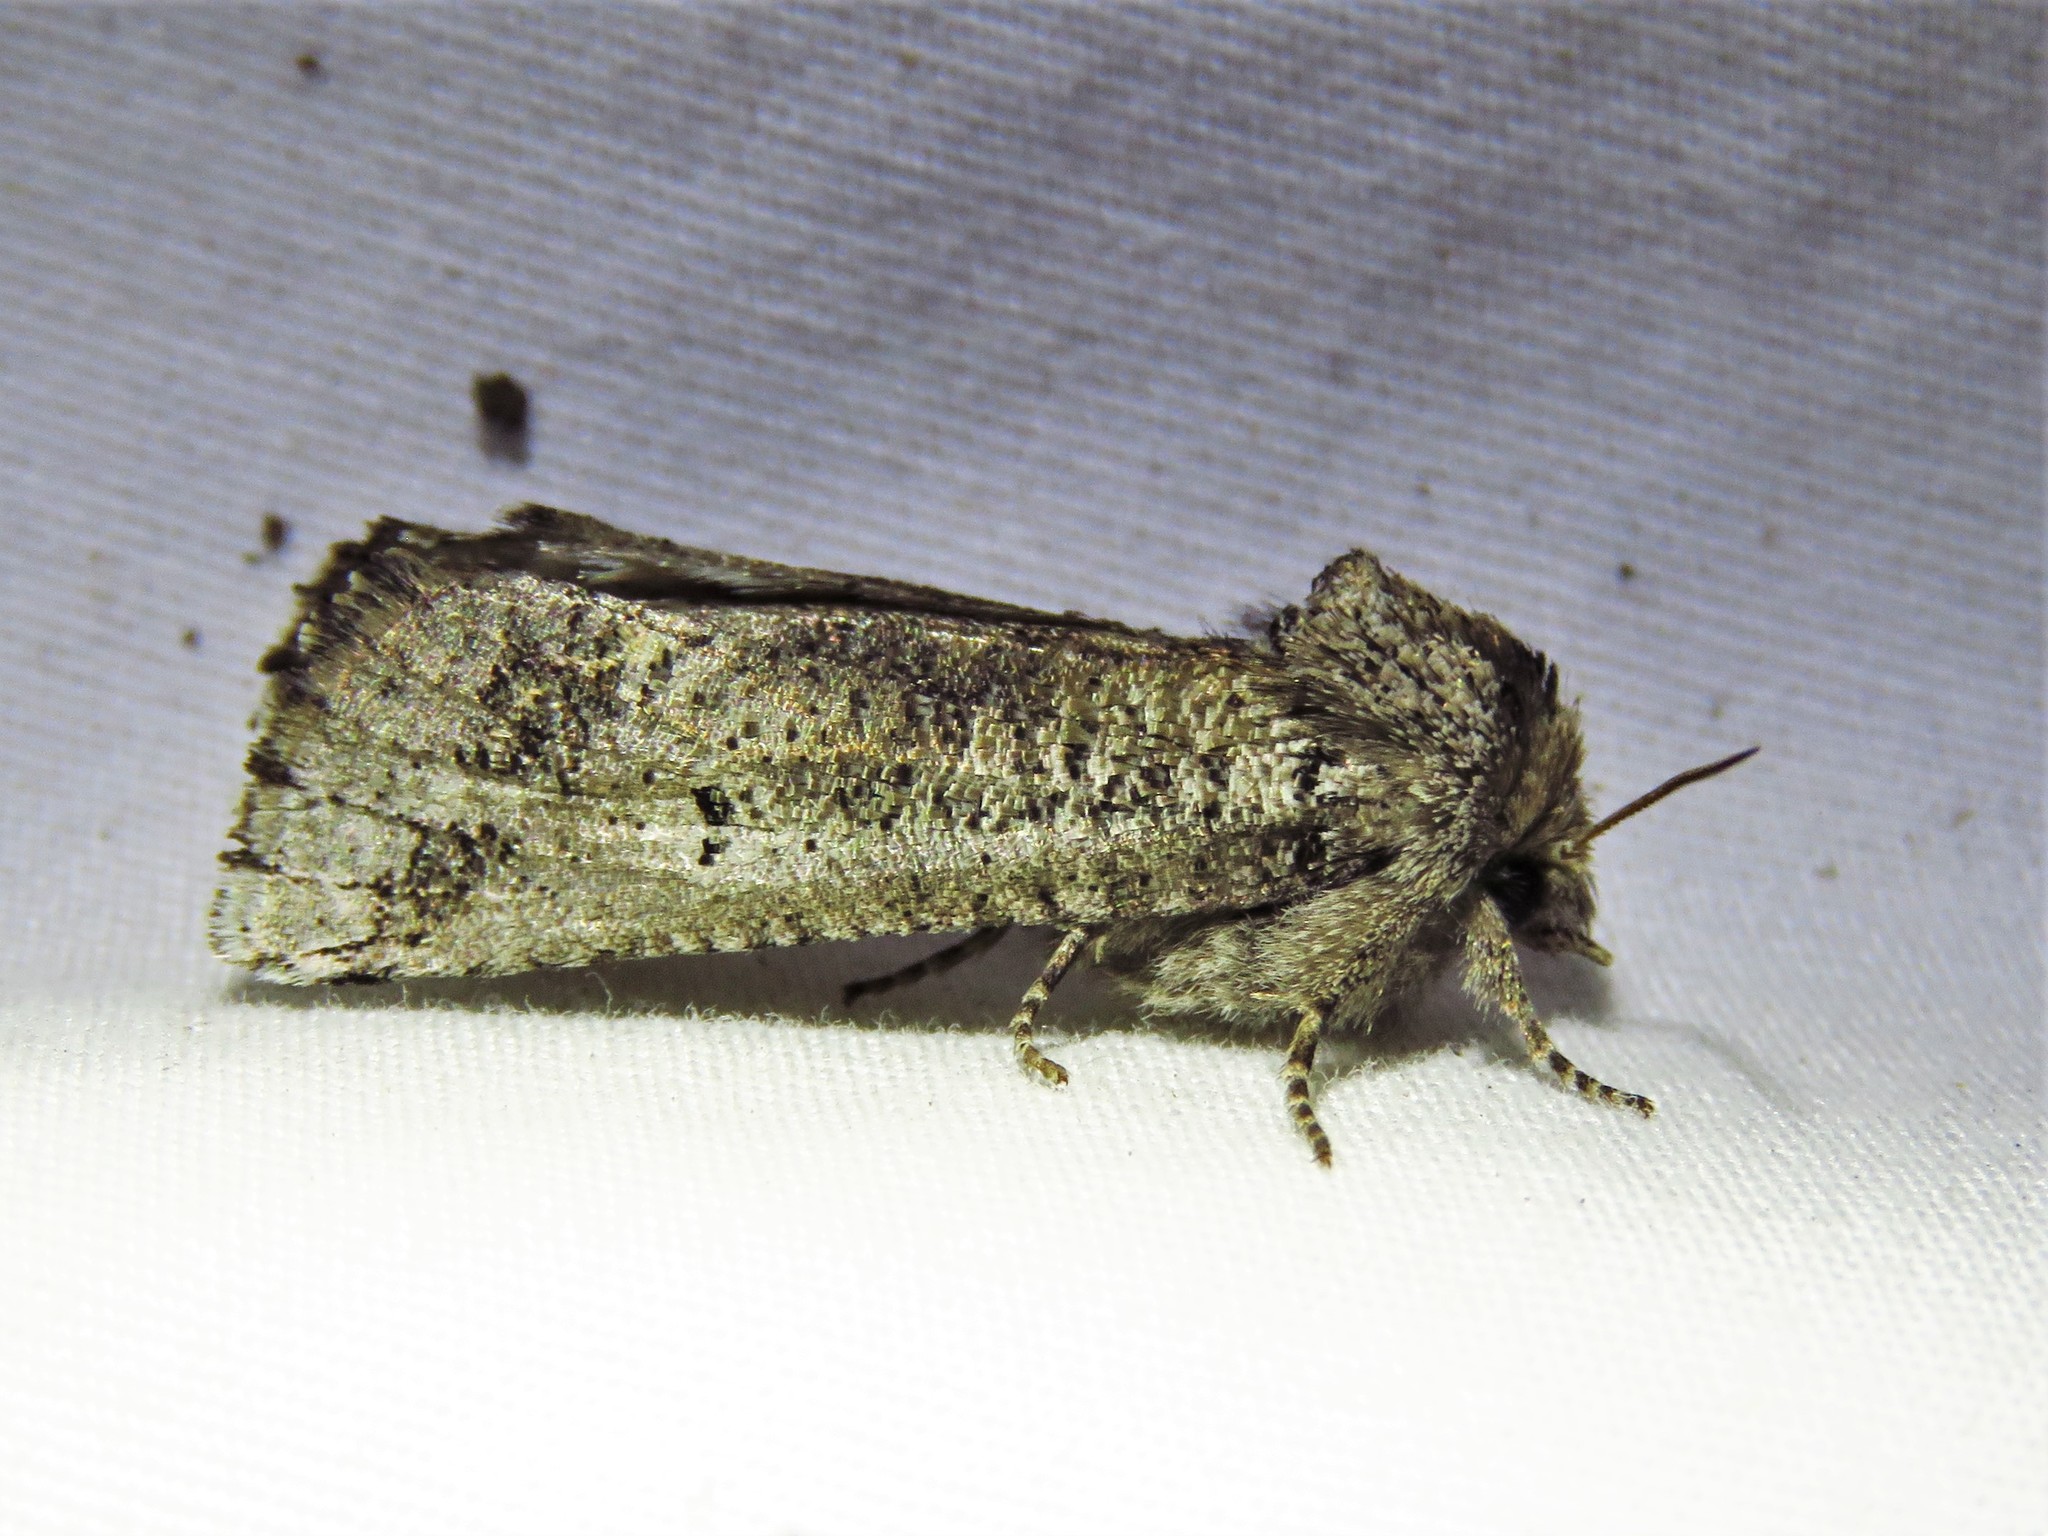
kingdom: Animalia
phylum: Arthropoda
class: Insecta
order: Lepidoptera
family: Erebidae
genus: Aon
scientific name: Aon noctuiformis
